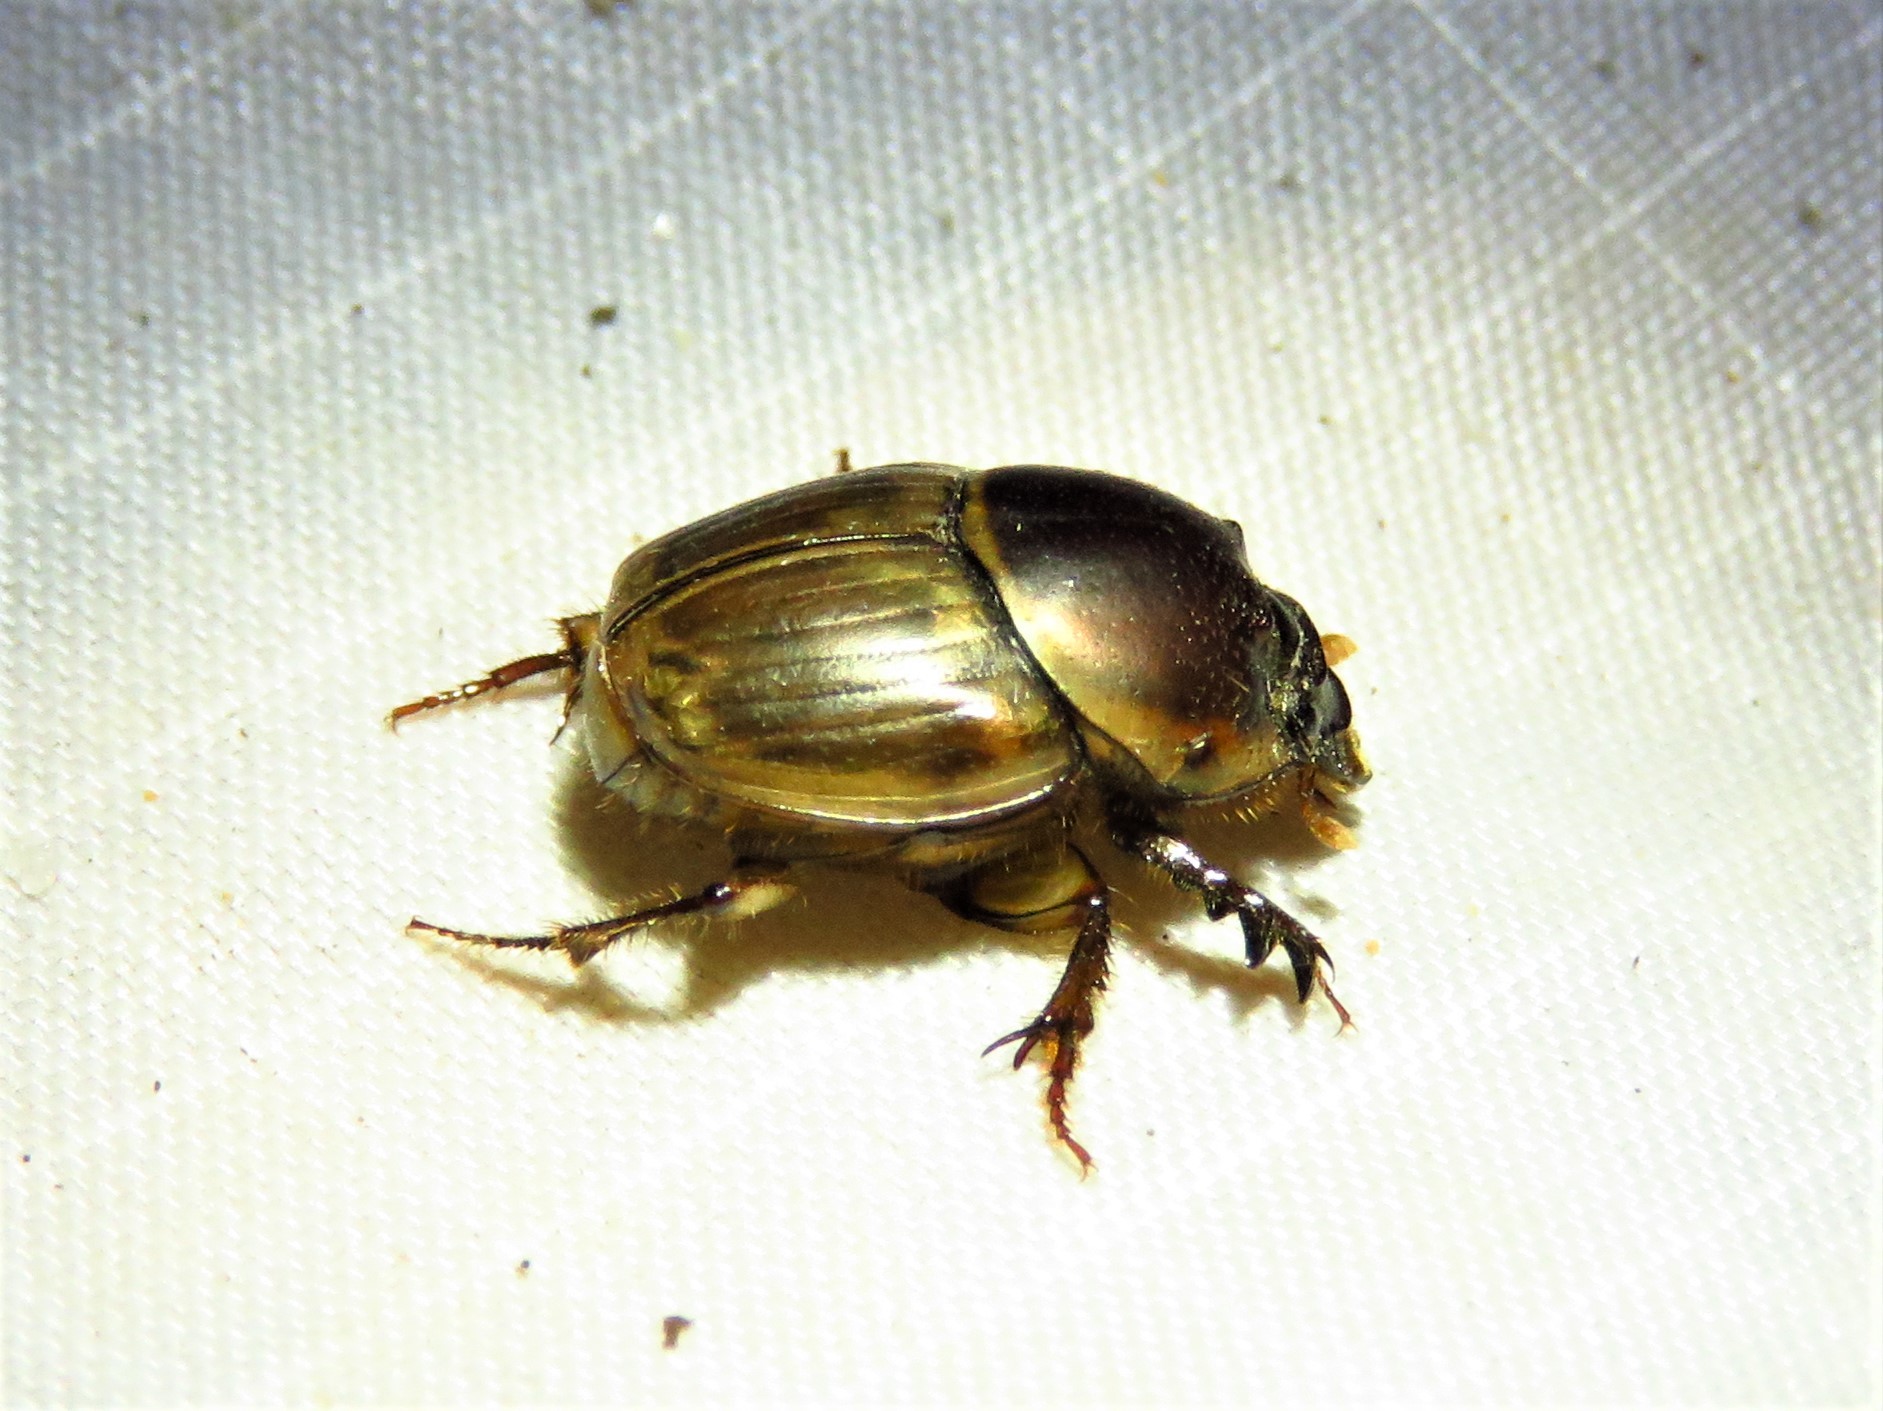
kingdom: Animalia
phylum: Arthropoda
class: Insecta
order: Coleoptera
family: Scarabaeidae
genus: Digitonthophagus
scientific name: Digitonthophagus gazella
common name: Brown dung beetle
